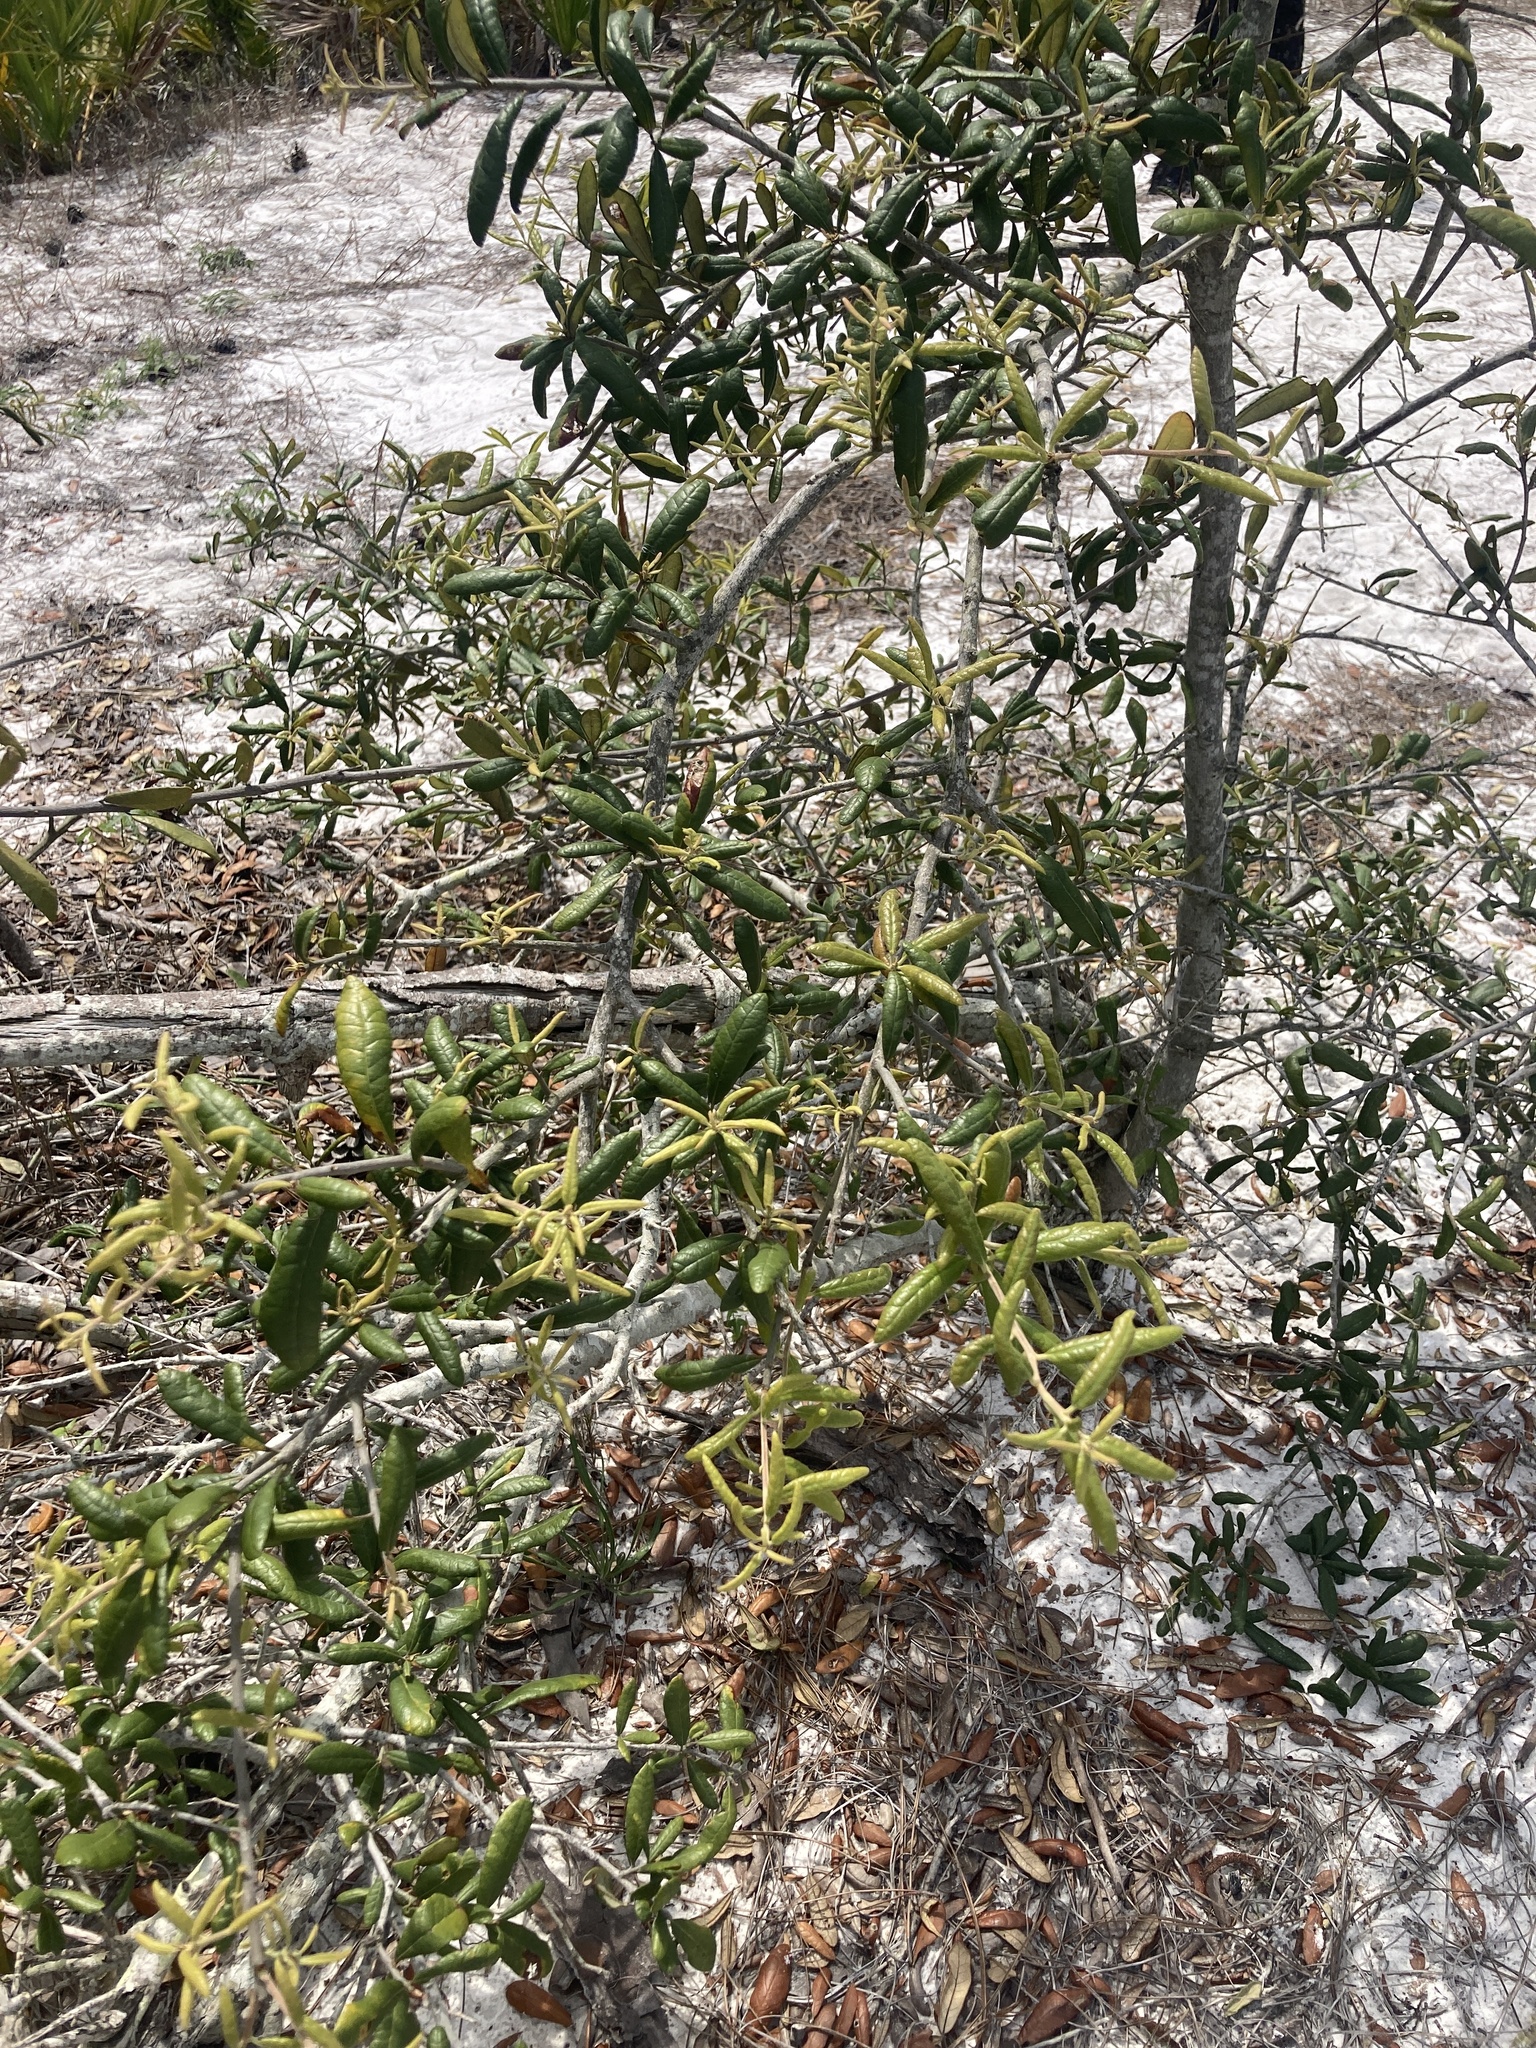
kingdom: Plantae
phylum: Tracheophyta
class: Magnoliopsida
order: Fagales
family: Fagaceae
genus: Quercus
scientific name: Quercus geminata
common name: Sand live oak
